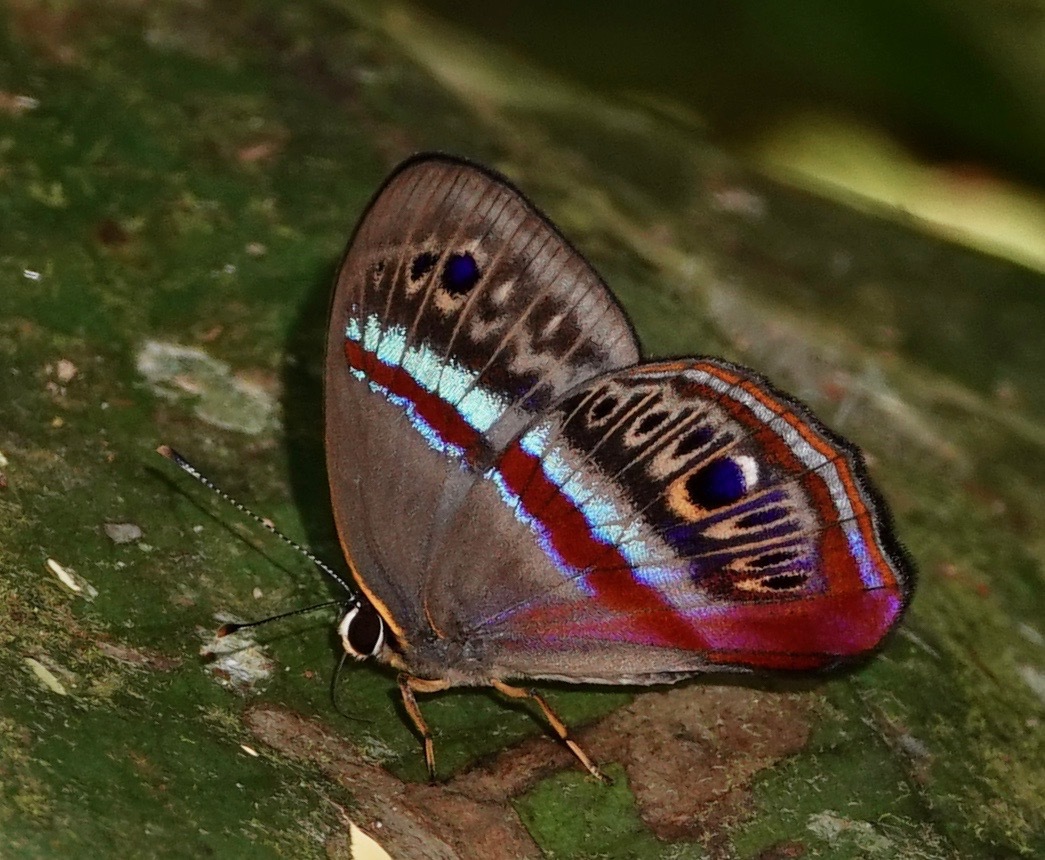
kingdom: Animalia
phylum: Arthropoda
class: Insecta
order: Lepidoptera
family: Lycaenidae
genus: Euselasia
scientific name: Euselasia orba
